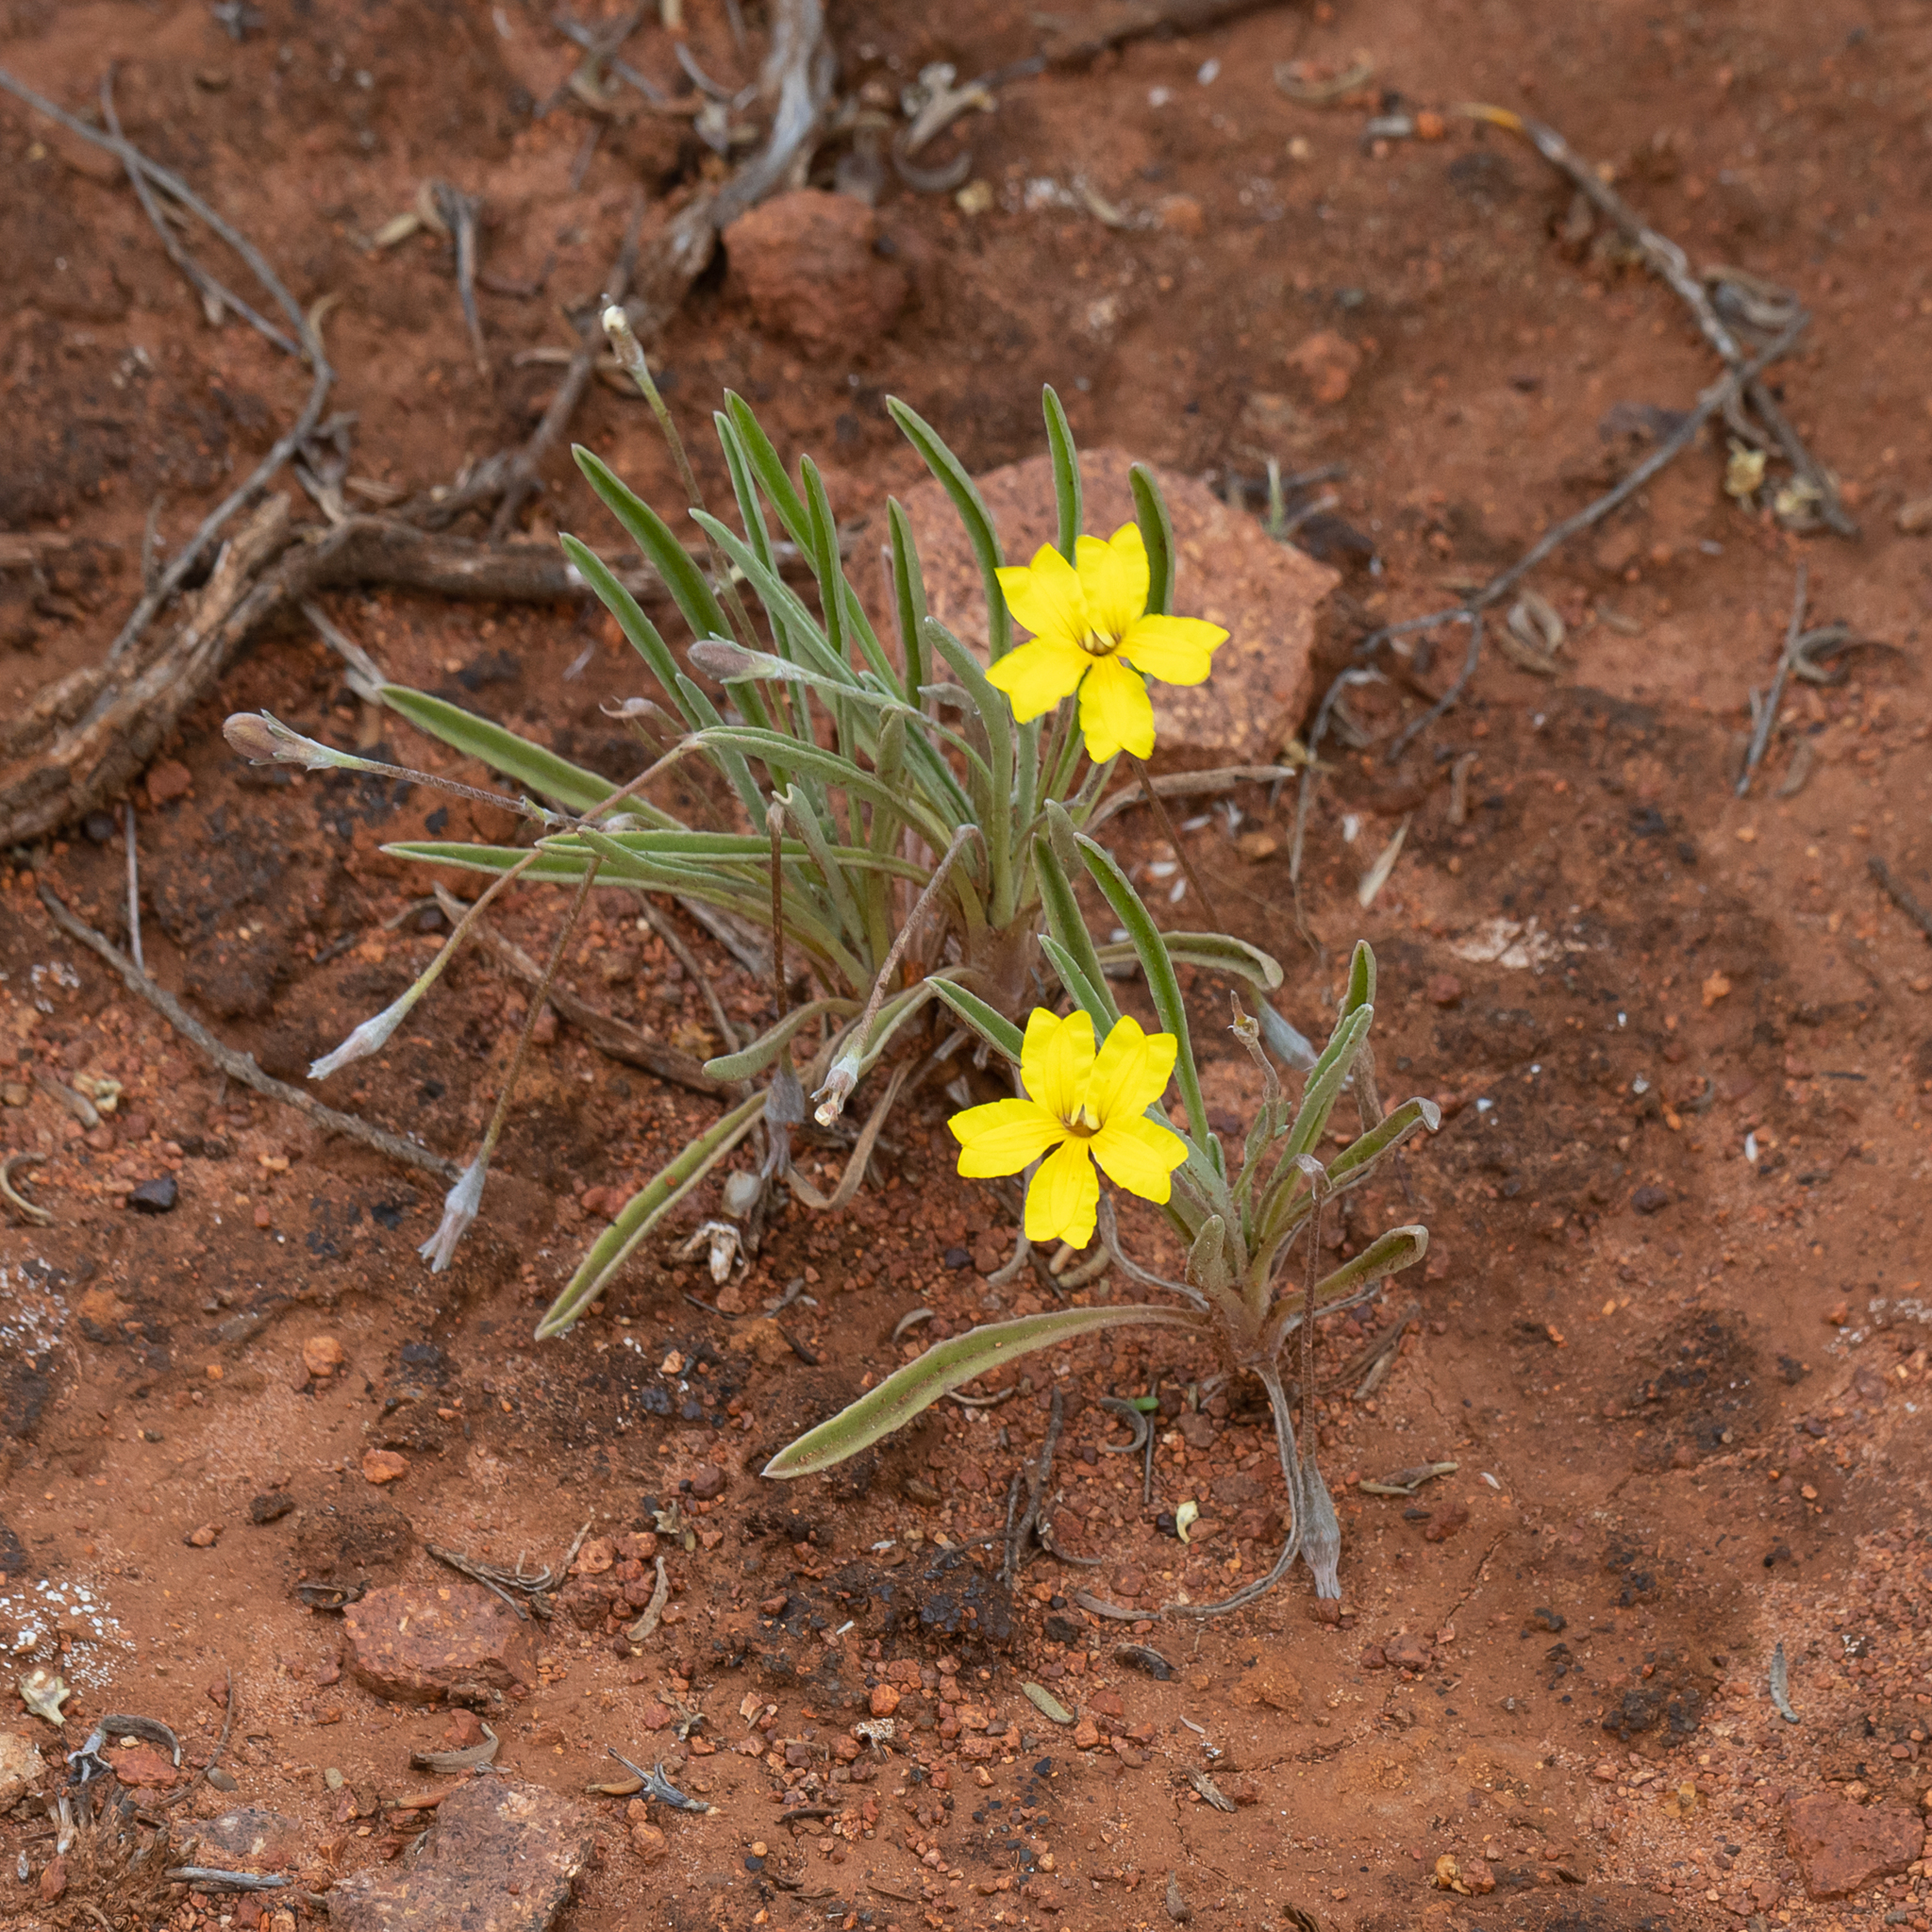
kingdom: Plantae
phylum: Tracheophyta
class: Magnoliopsida
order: Asterales
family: Goodeniaceae
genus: Goodenia
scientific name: Goodenia willisiana
